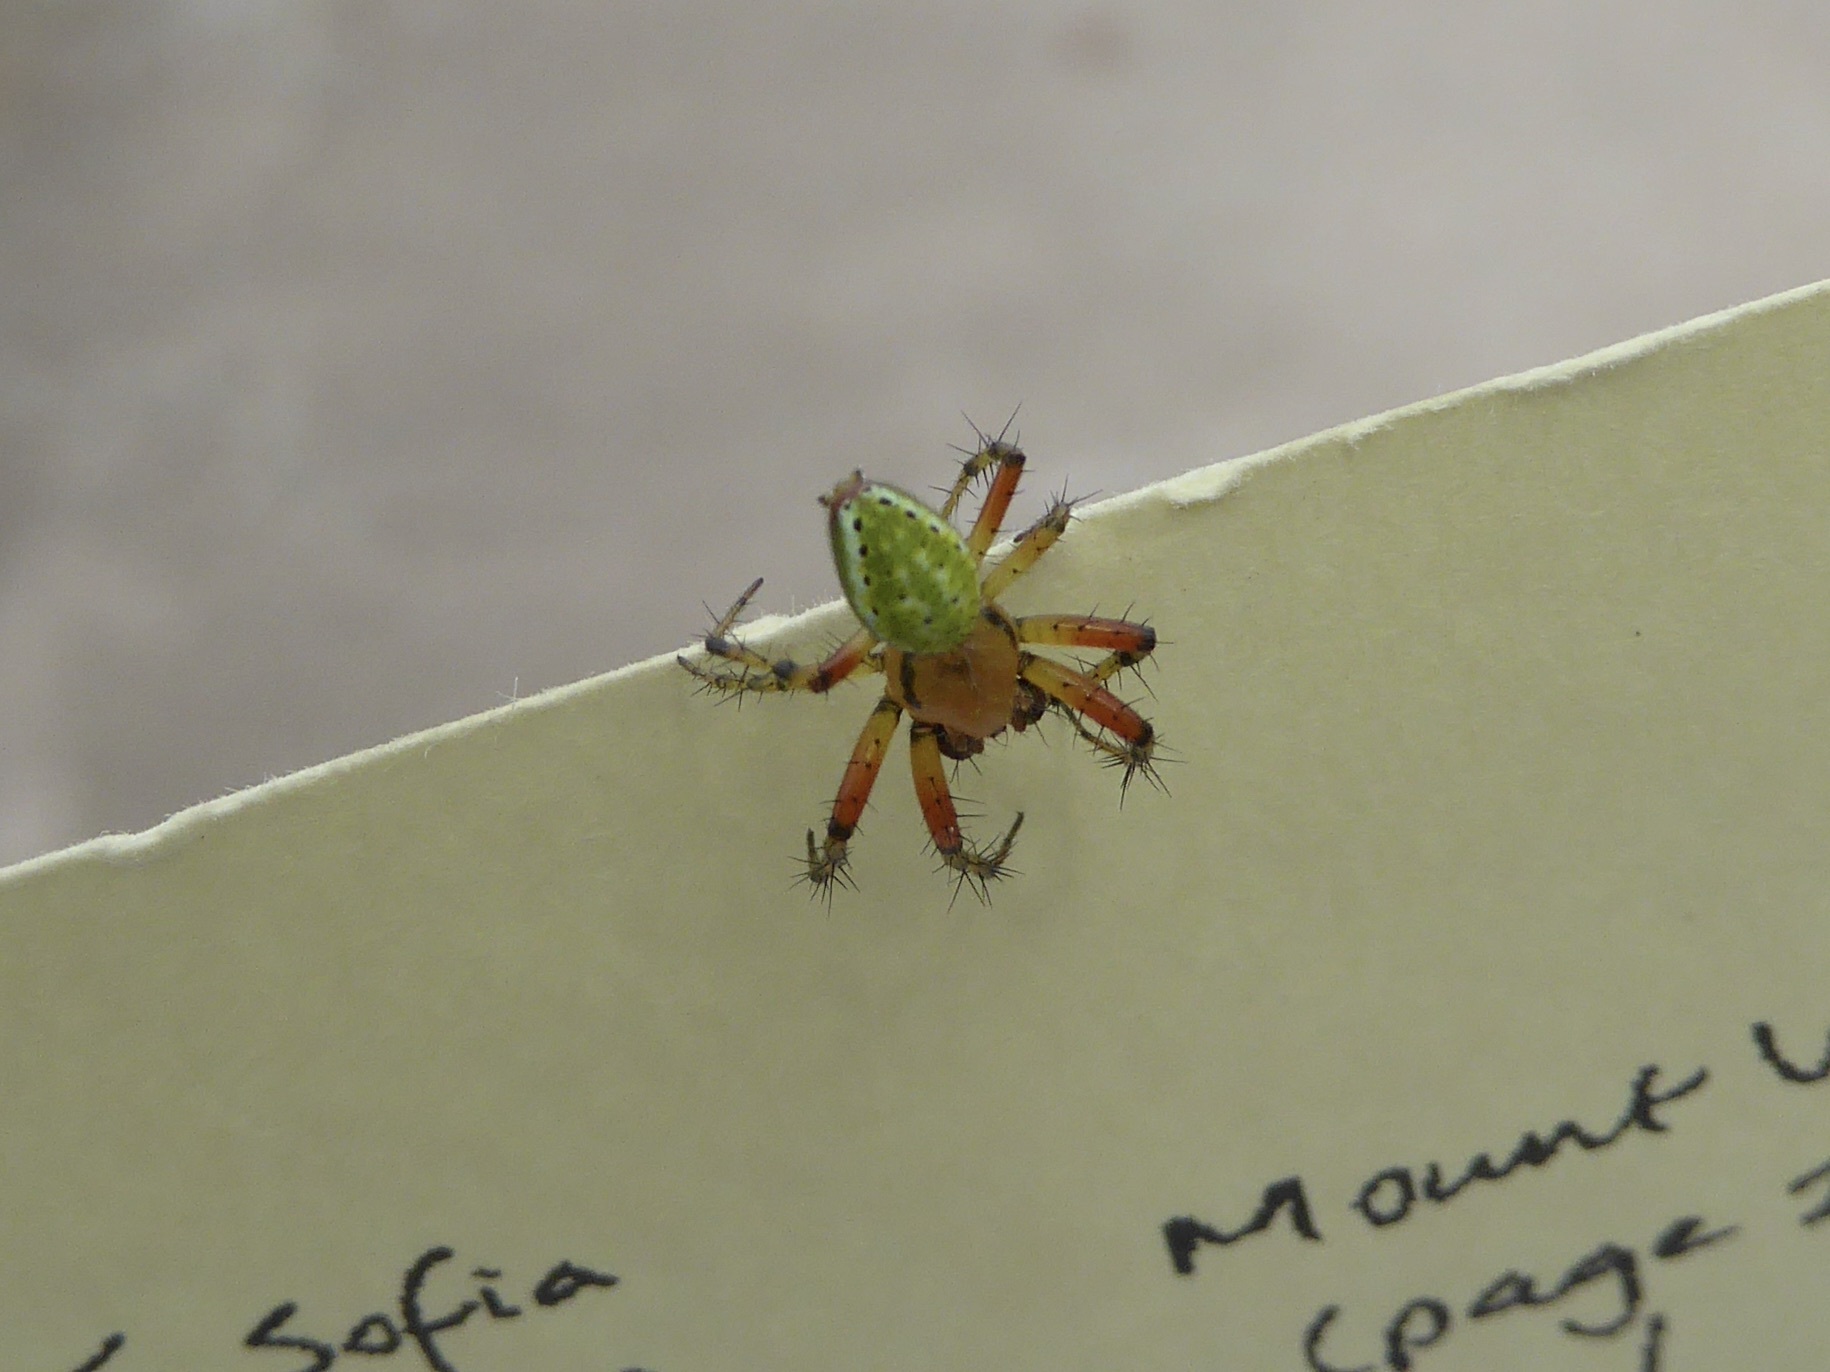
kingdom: Animalia
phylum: Arthropoda
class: Arachnida
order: Araneae
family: Araneidae
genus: Araniella
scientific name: Araniella
